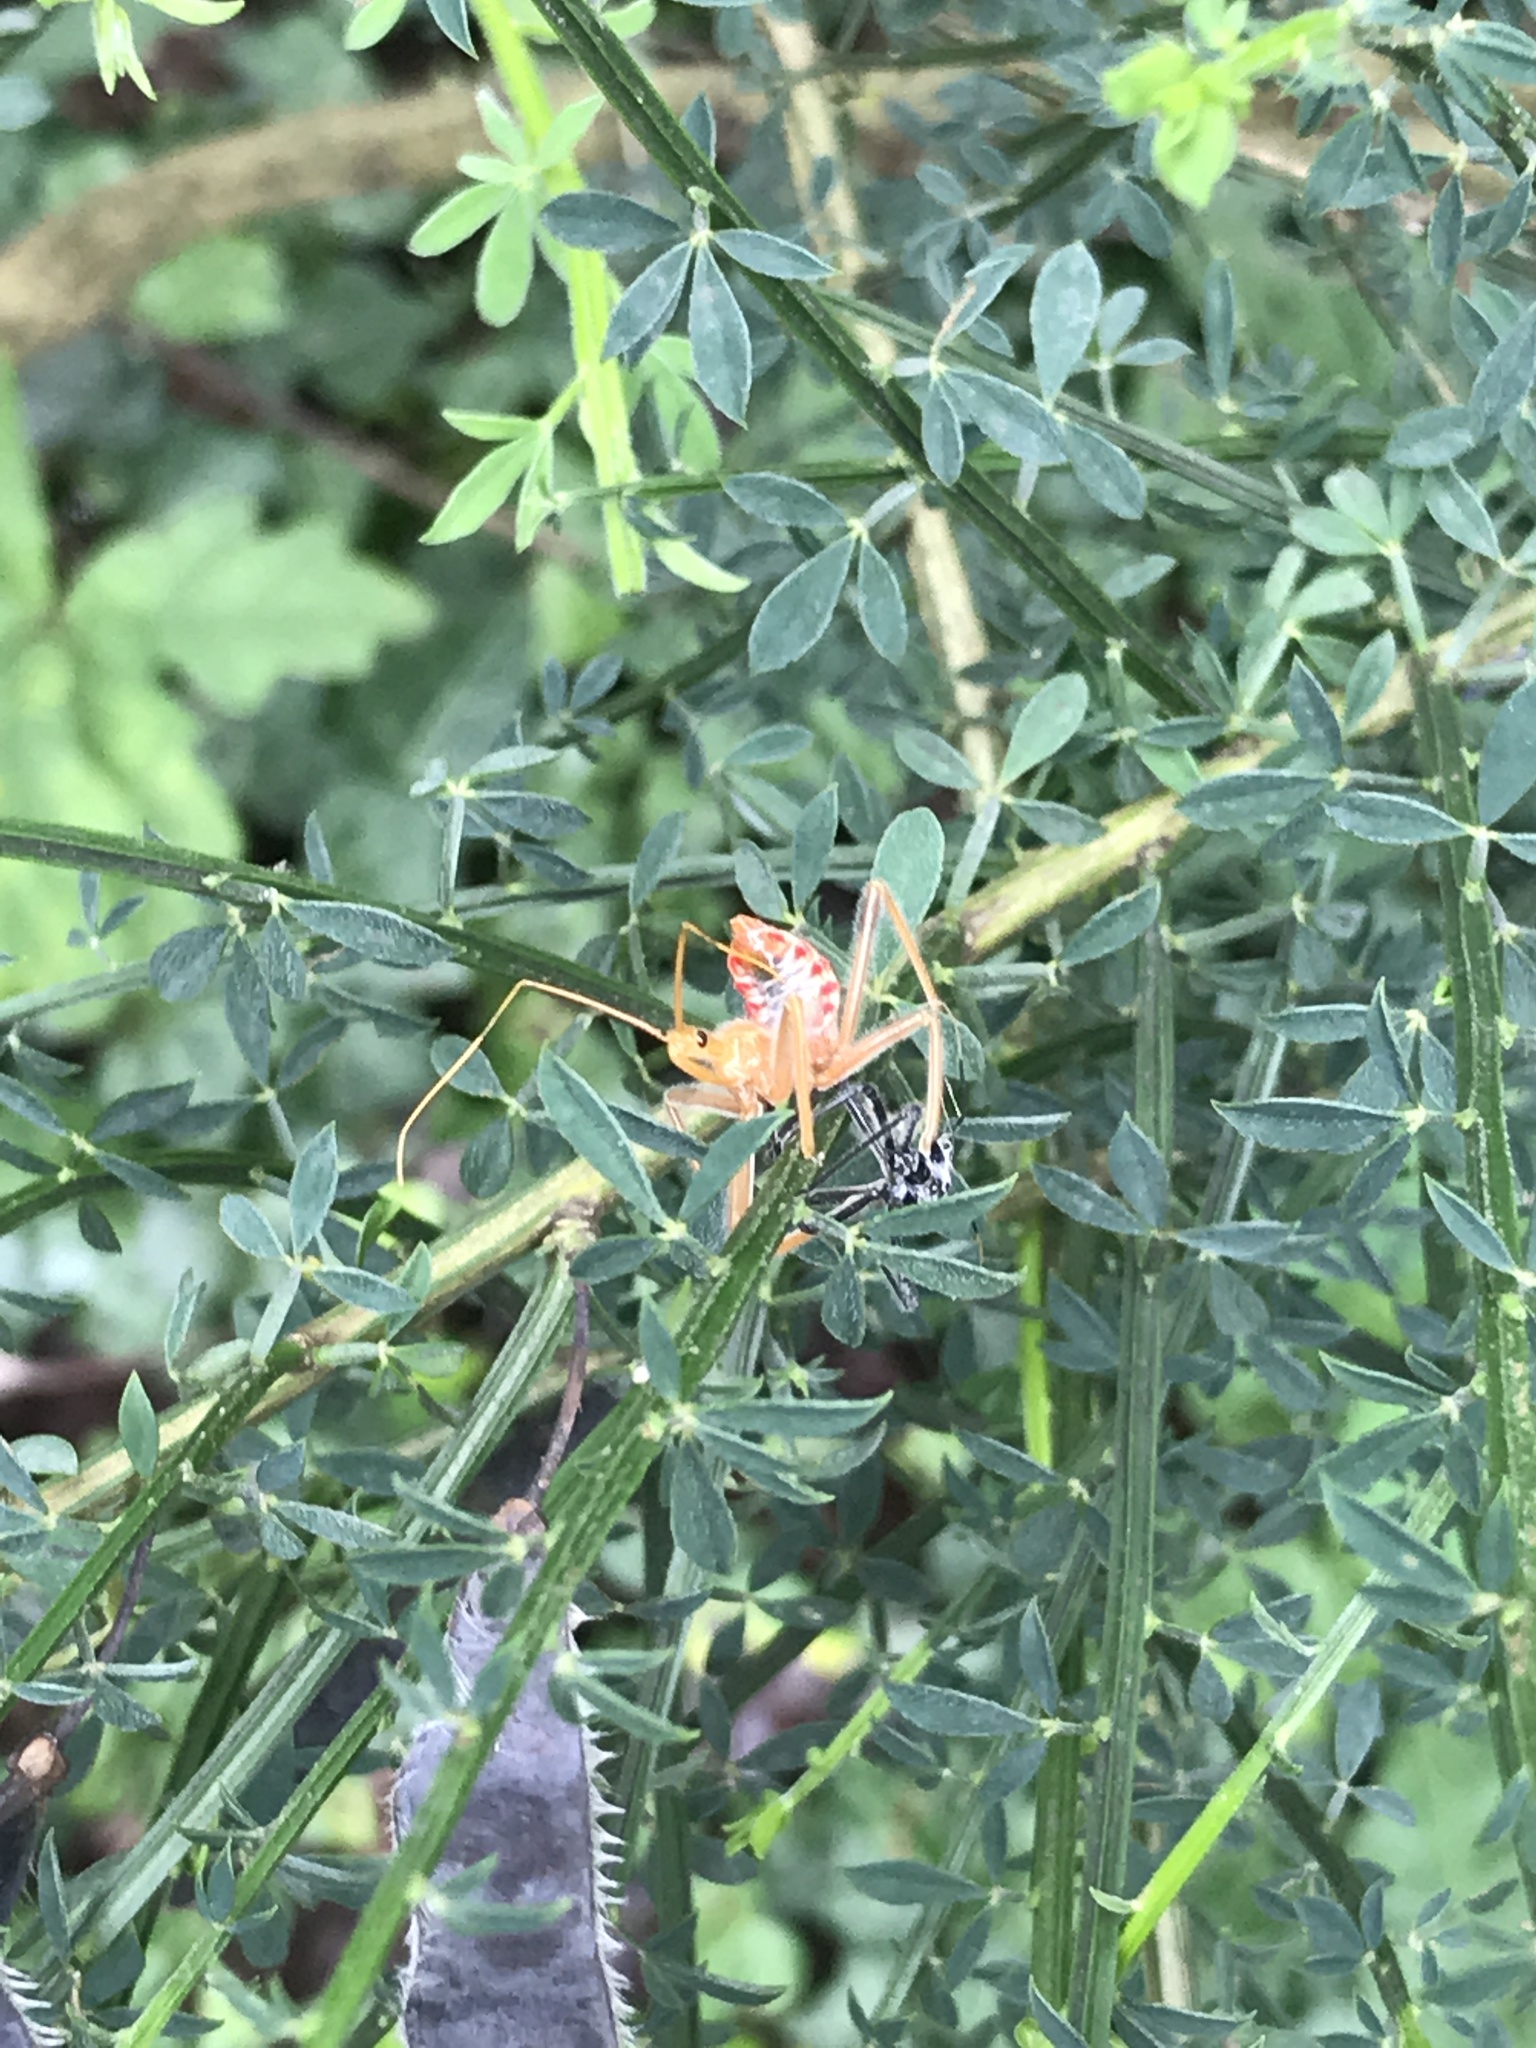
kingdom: Animalia
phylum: Arthropoda
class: Insecta
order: Hemiptera
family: Reduviidae
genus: Arilus
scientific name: Arilus cristatus
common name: North american wheel bug
